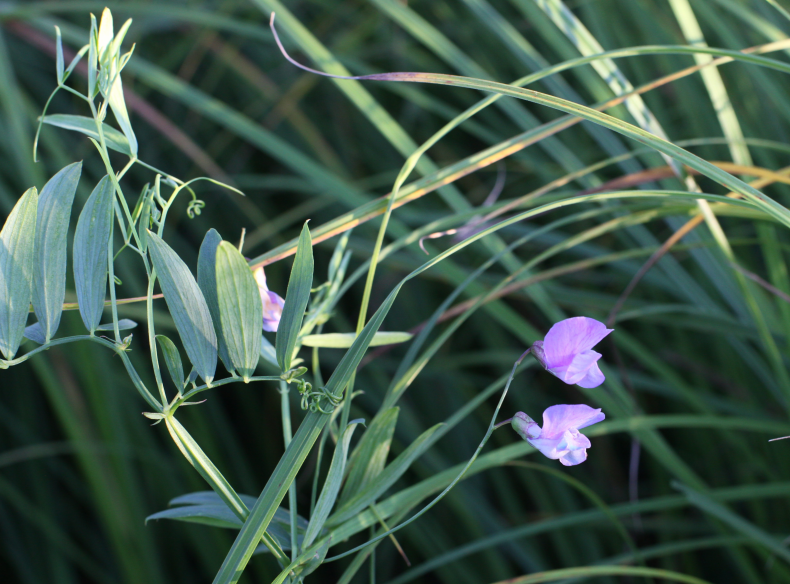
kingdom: Plantae
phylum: Tracheophyta
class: Magnoliopsida
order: Fabales
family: Fabaceae
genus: Lathyrus
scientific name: Lathyrus palustris
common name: Marsh pea
